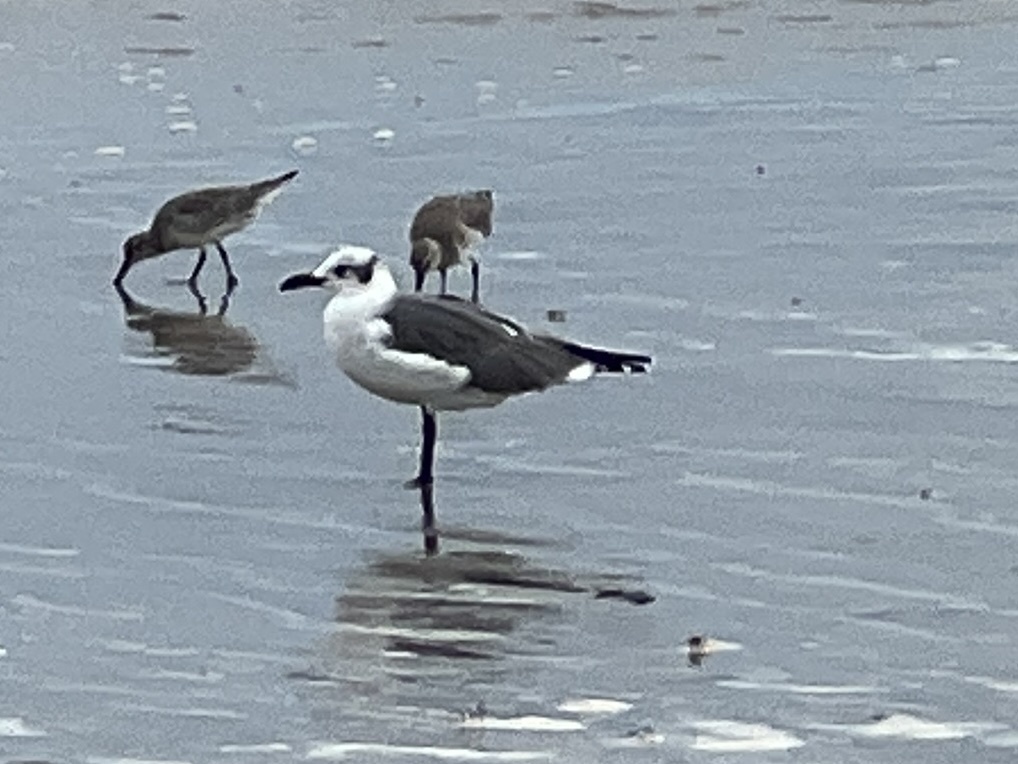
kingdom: Animalia
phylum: Chordata
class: Aves
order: Charadriiformes
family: Laridae
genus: Leucophaeus
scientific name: Leucophaeus atricilla
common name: Laughing gull
